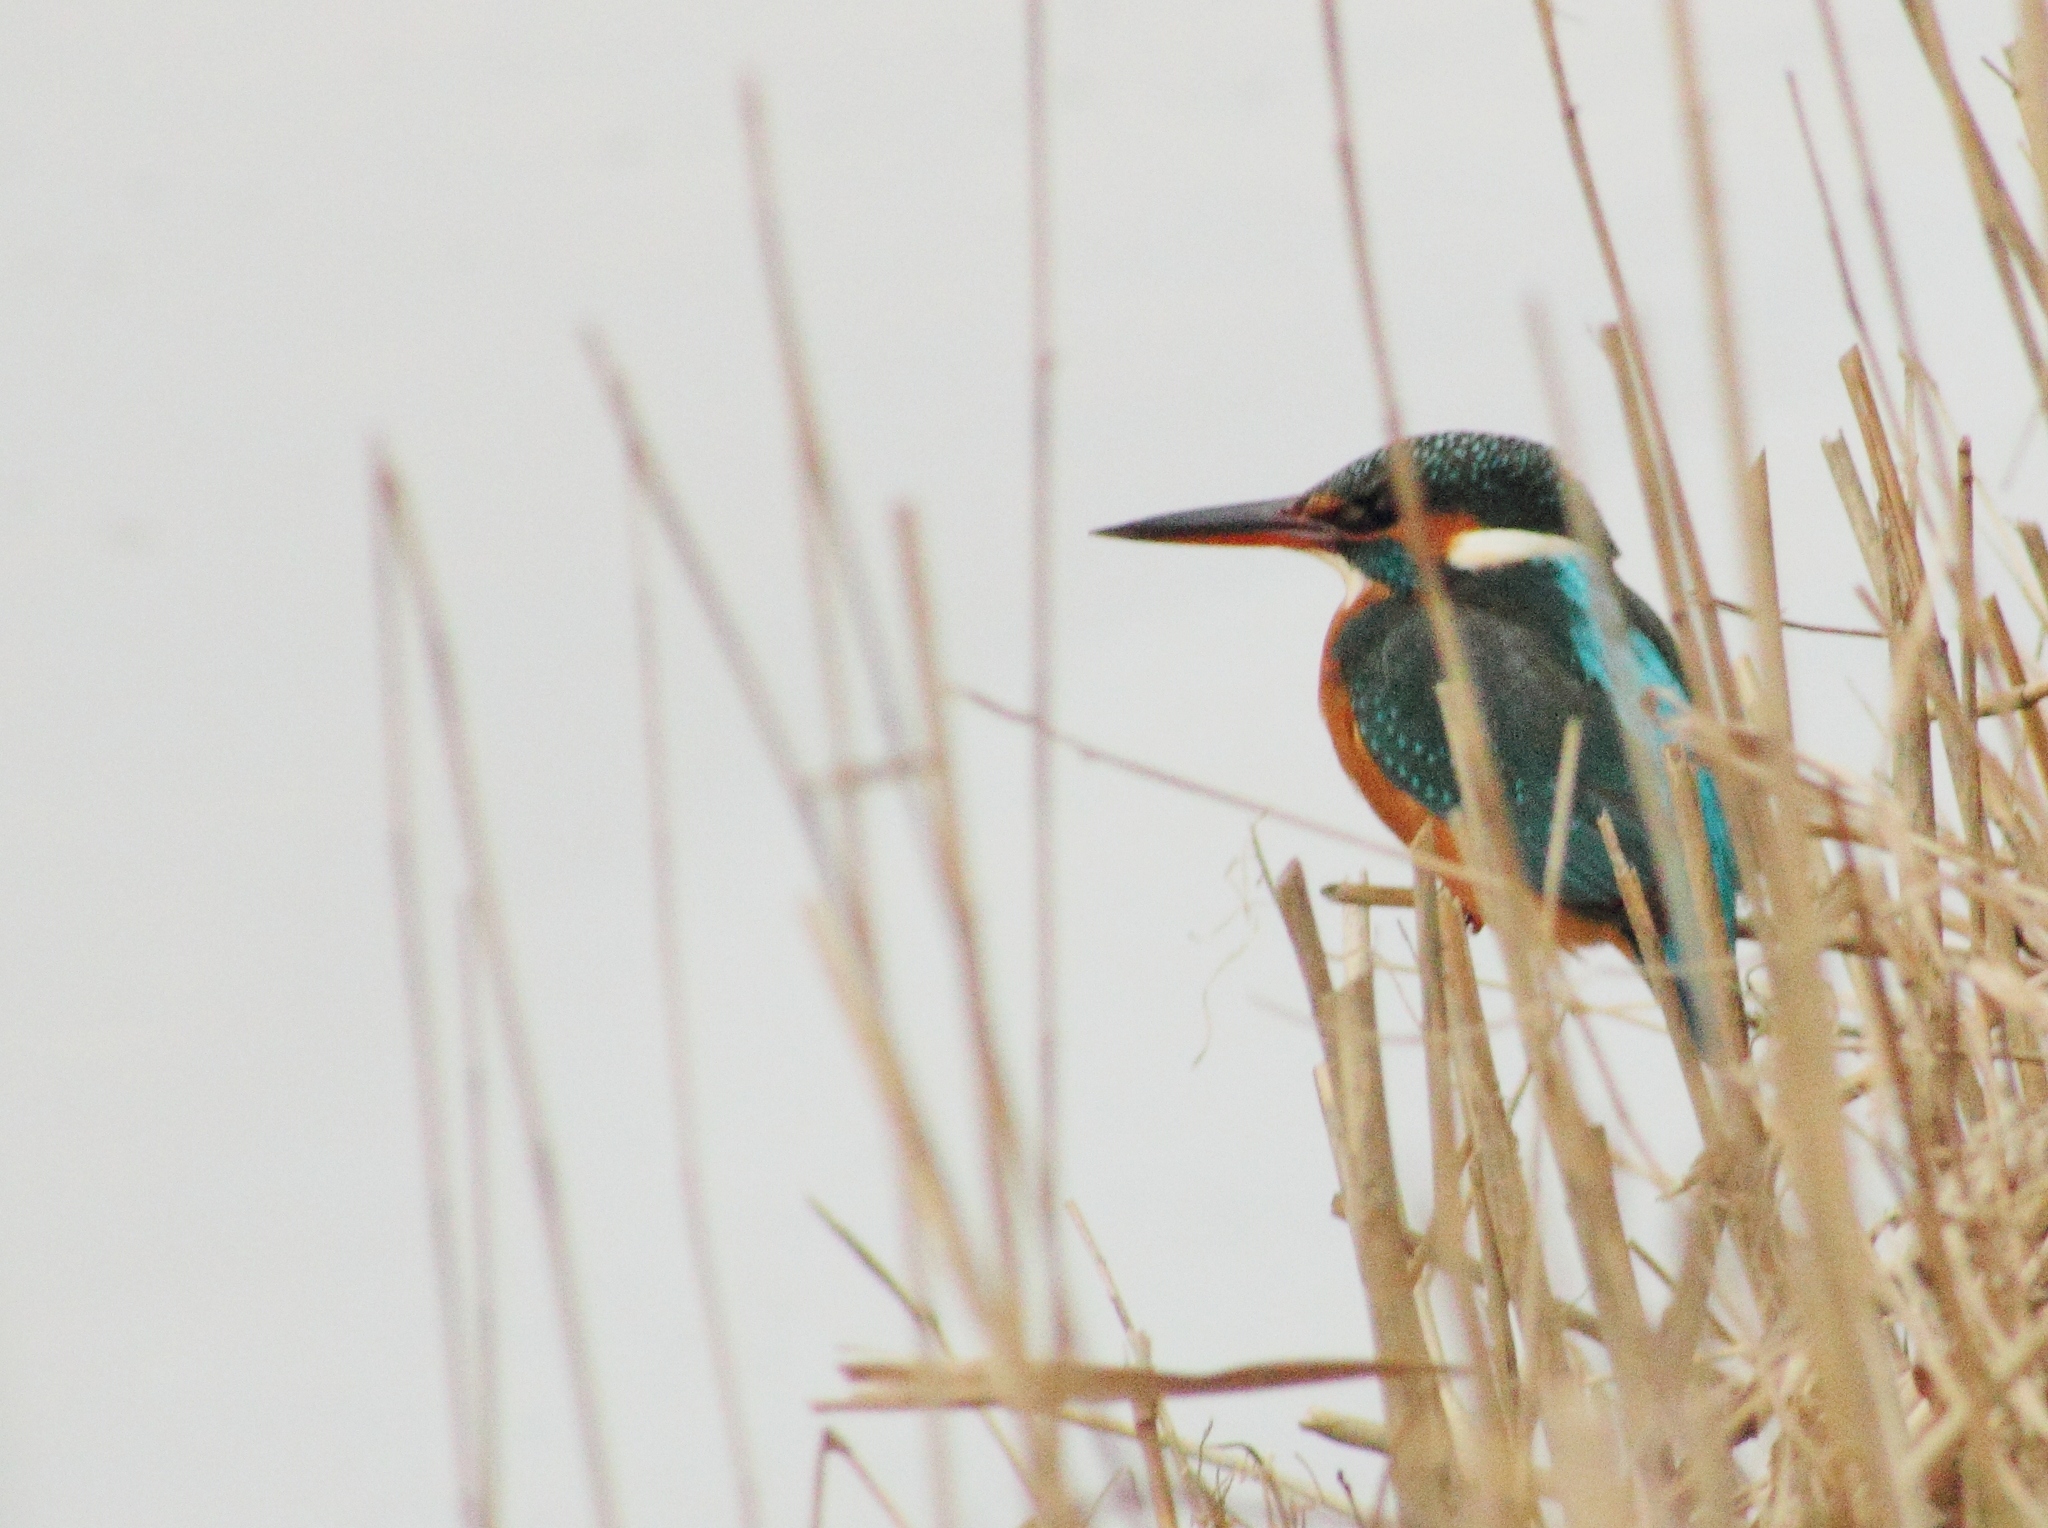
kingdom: Animalia
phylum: Chordata
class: Aves
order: Coraciiformes
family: Alcedinidae
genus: Alcedo
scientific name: Alcedo atthis
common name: Common kingfisher
